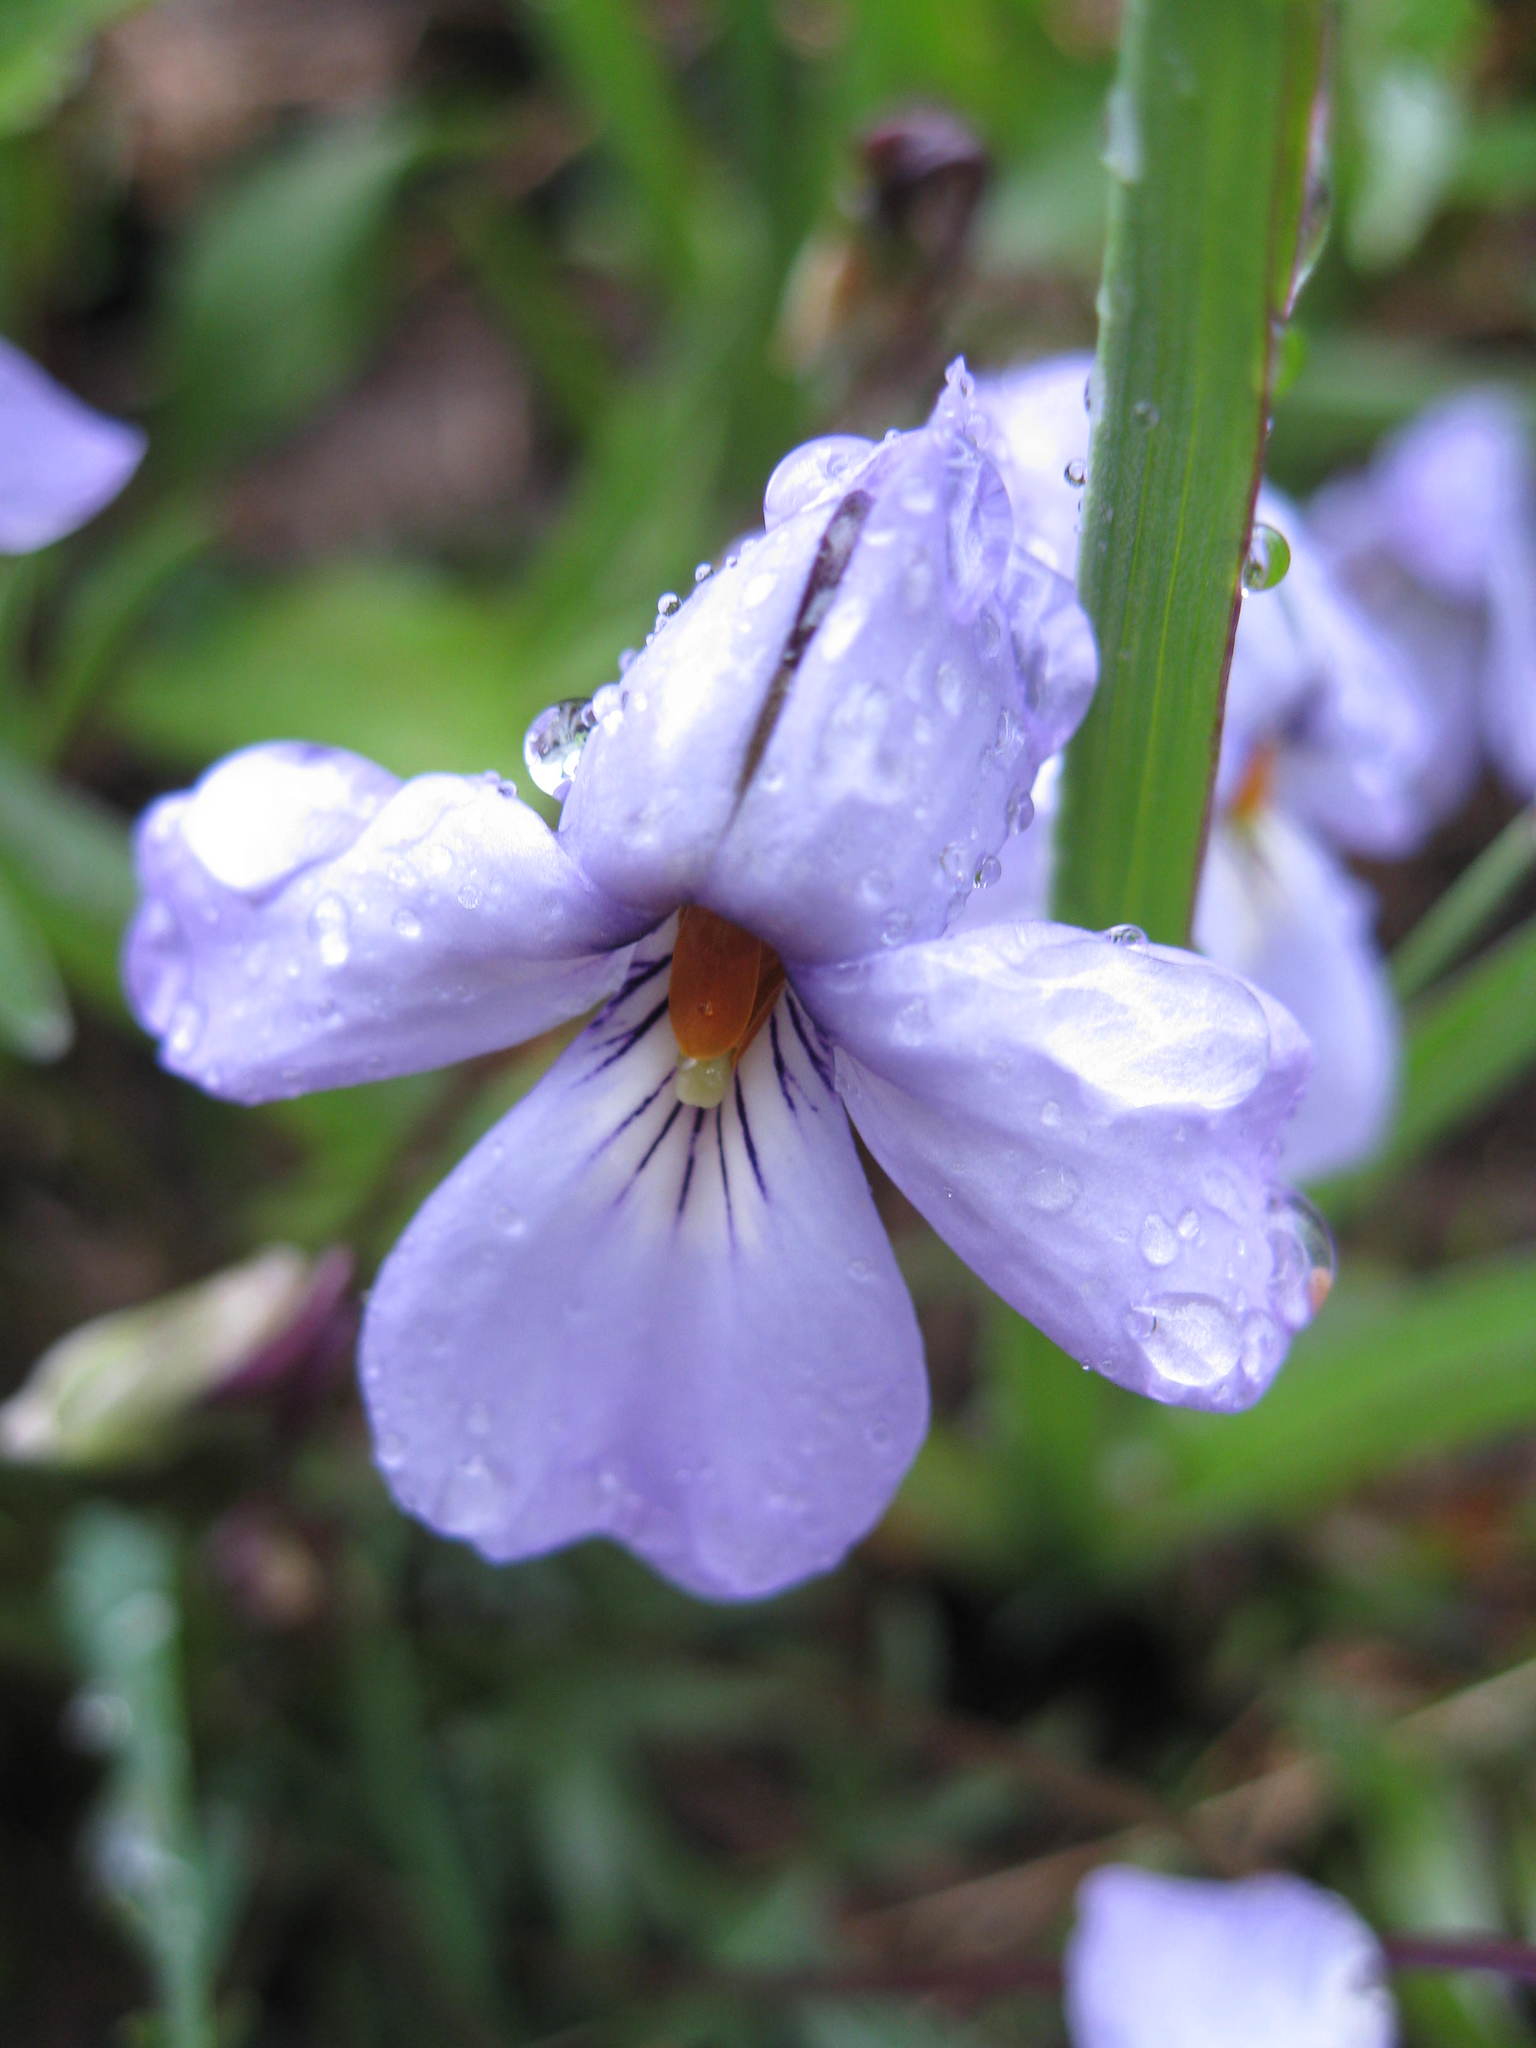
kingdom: Plantae
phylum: Tracheophyta
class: Magnoliopsida
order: Malpighiales
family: Violaceae
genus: Viola
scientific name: Viola pedata
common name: Pansy violet
